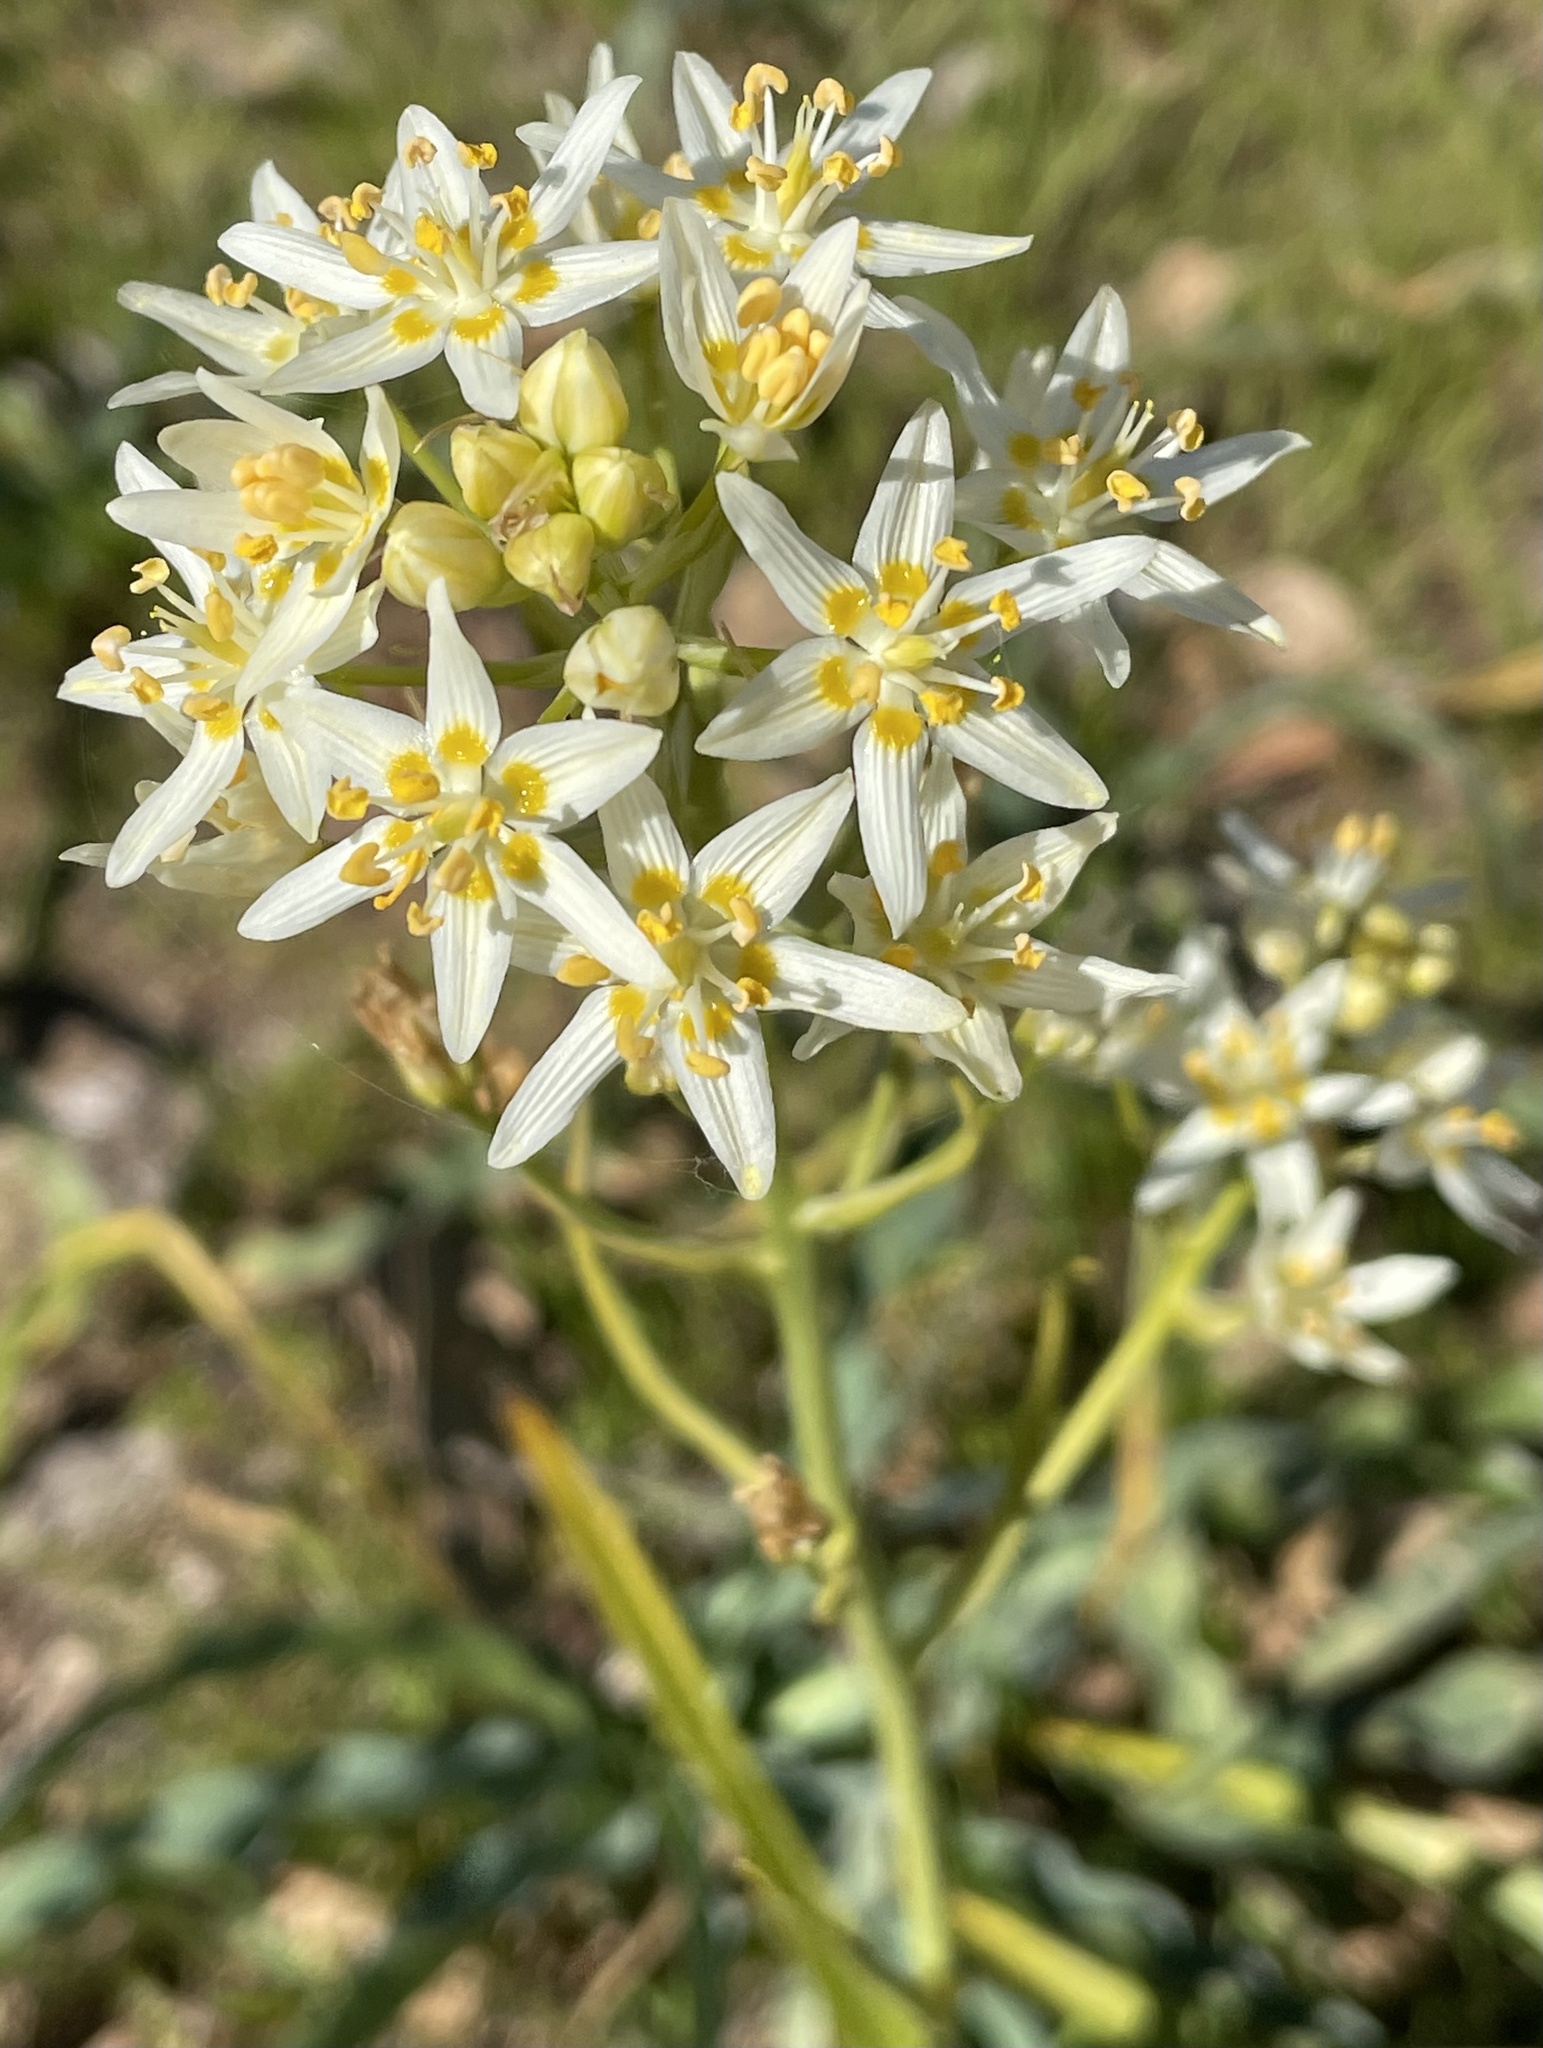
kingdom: Plantae
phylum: Tracheophyta
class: Liliopsida
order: Liliales
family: Melanthiaceae
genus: Toxicoscordion
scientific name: Toxicoscordion fremontii
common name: Fremont's death camas
